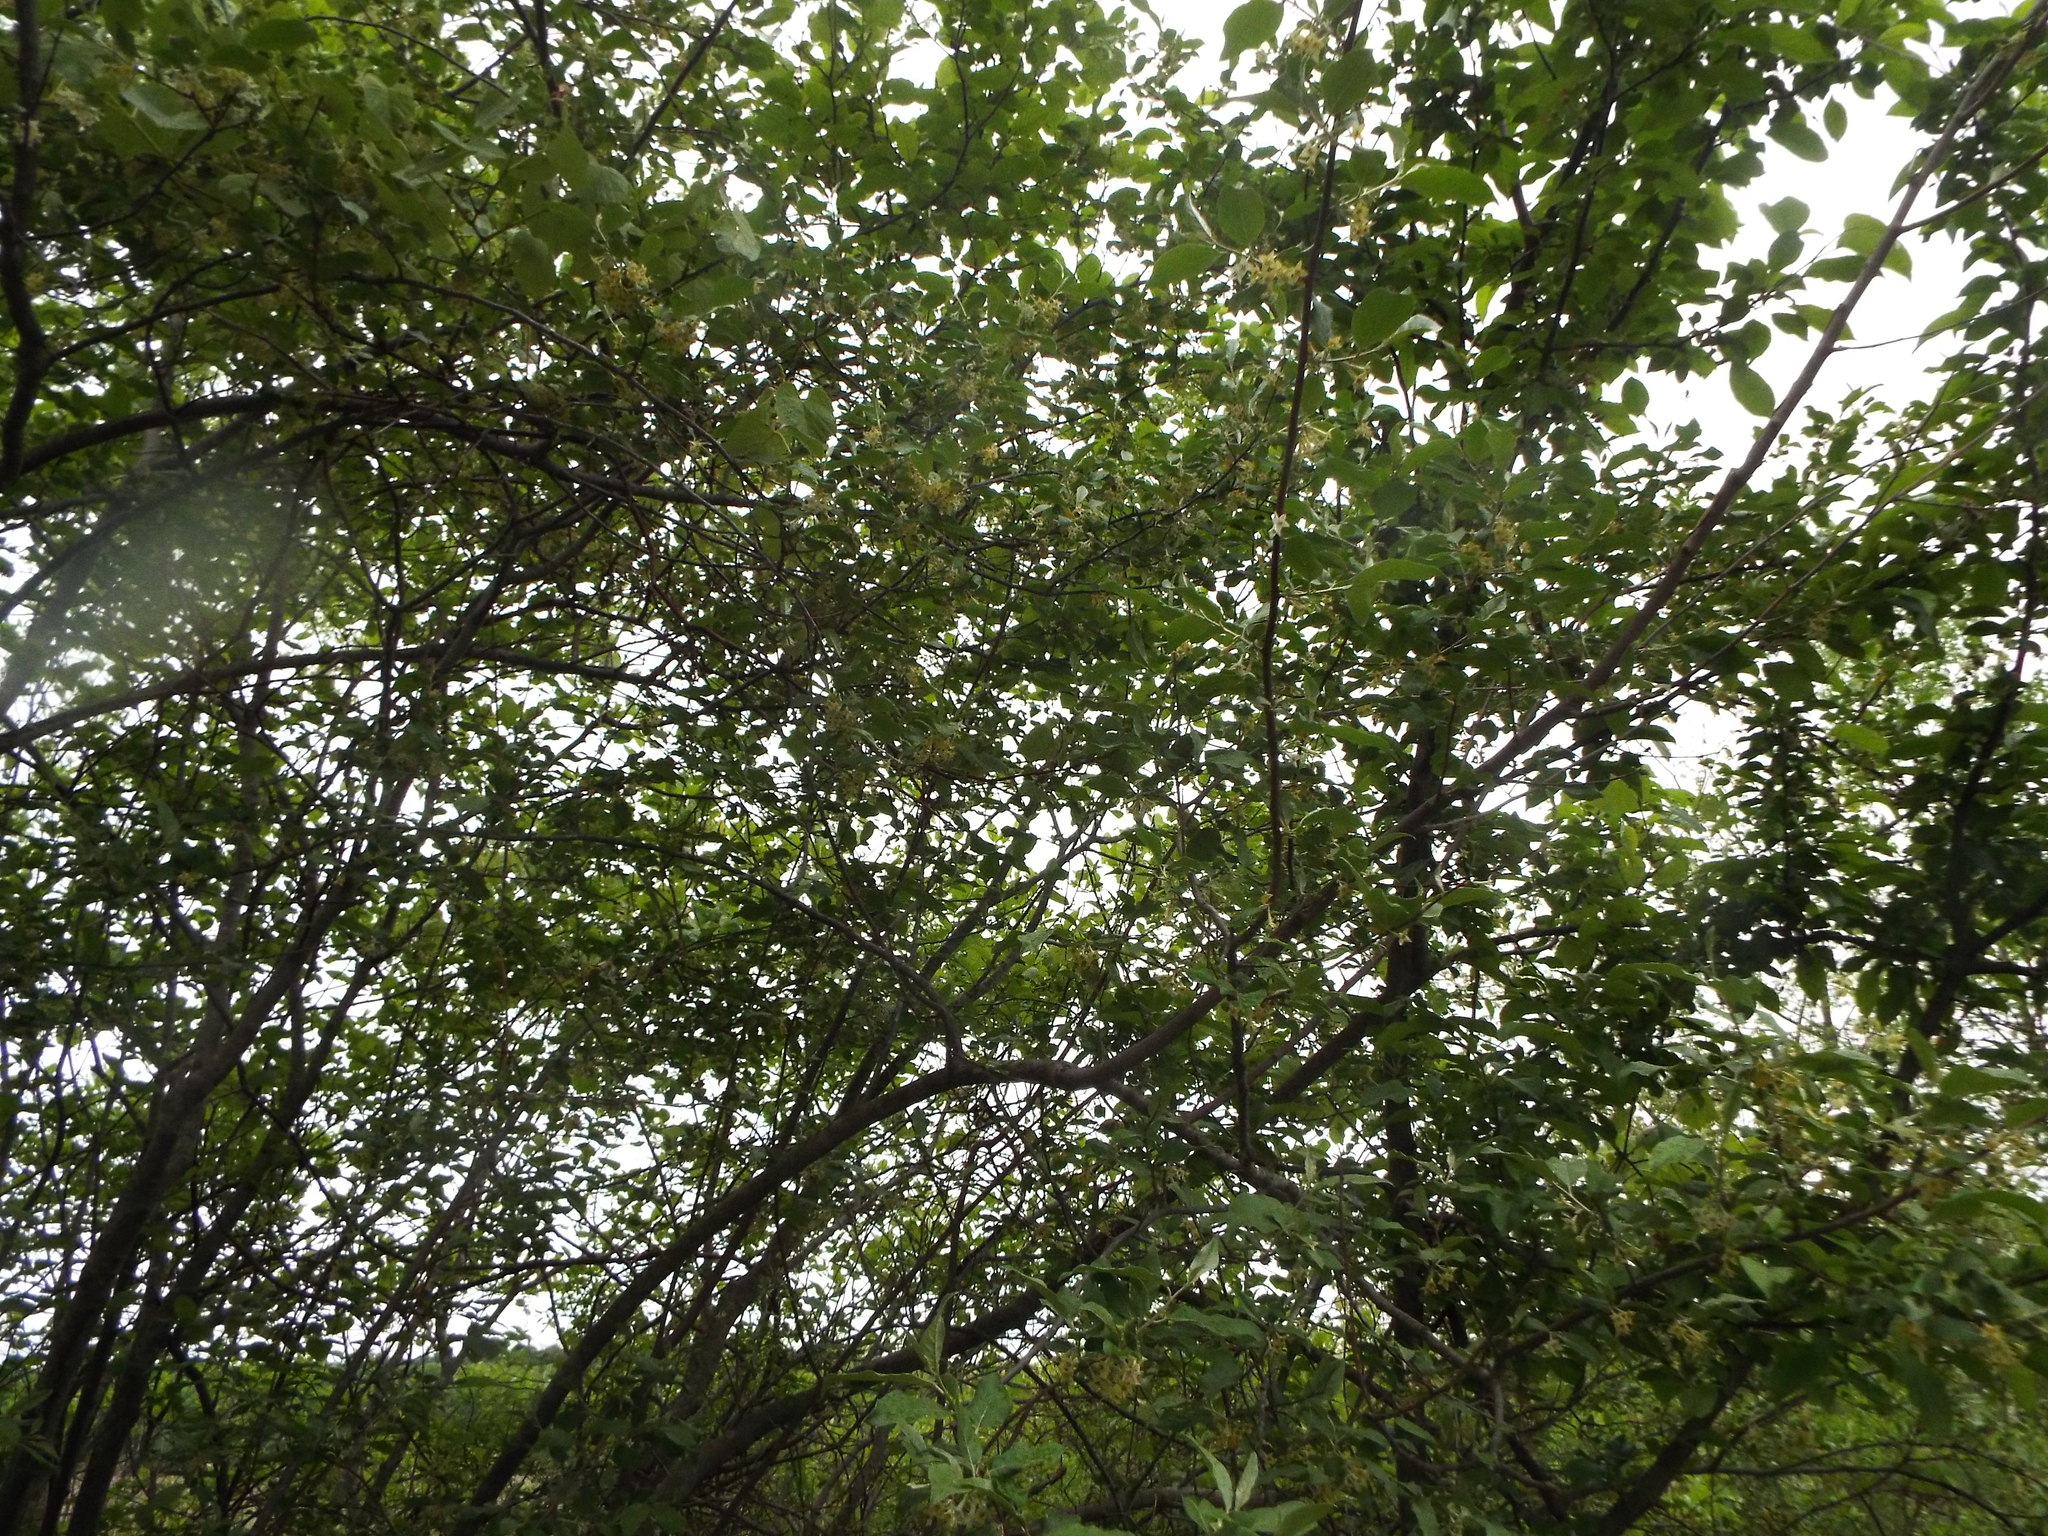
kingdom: Plantae
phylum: Tracheophyta
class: Magnoliopsida
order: Rosales
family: Elaeagnaceae
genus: Elaeagnus
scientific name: Elaeagnus umbellata
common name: Autumn olive
